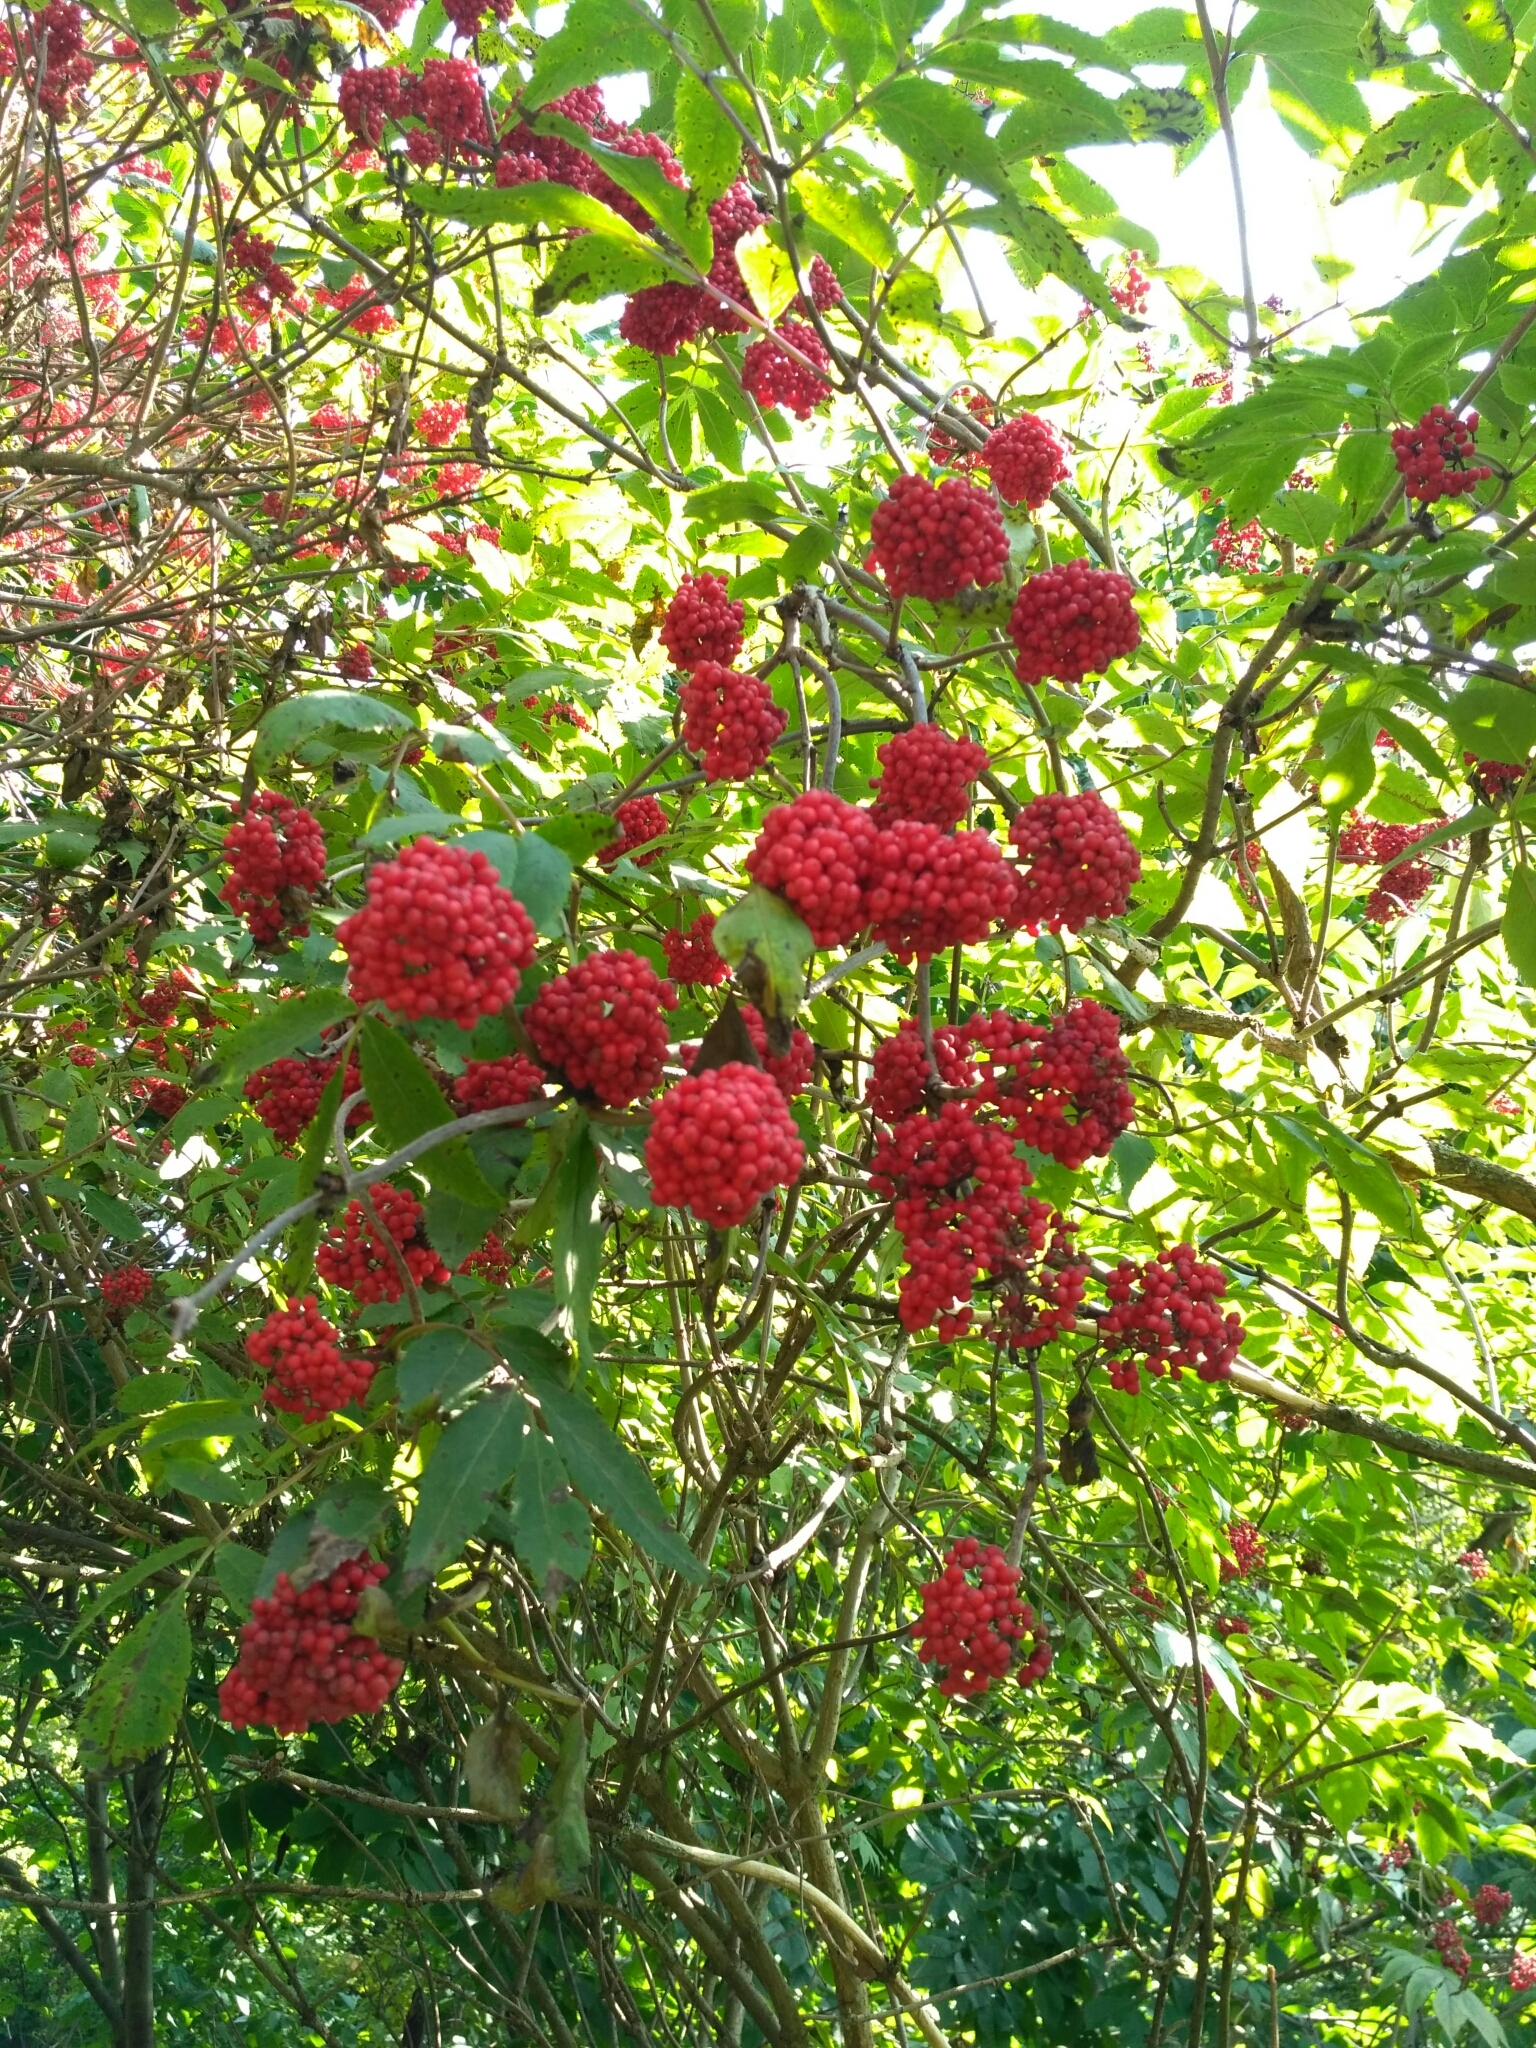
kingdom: Plantae
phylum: Tracheophyta
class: Magnoliopsida
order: Dipsacales
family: Viburnaceae
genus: Sambucus
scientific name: Sambucus racemosa
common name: Red-berried elder
